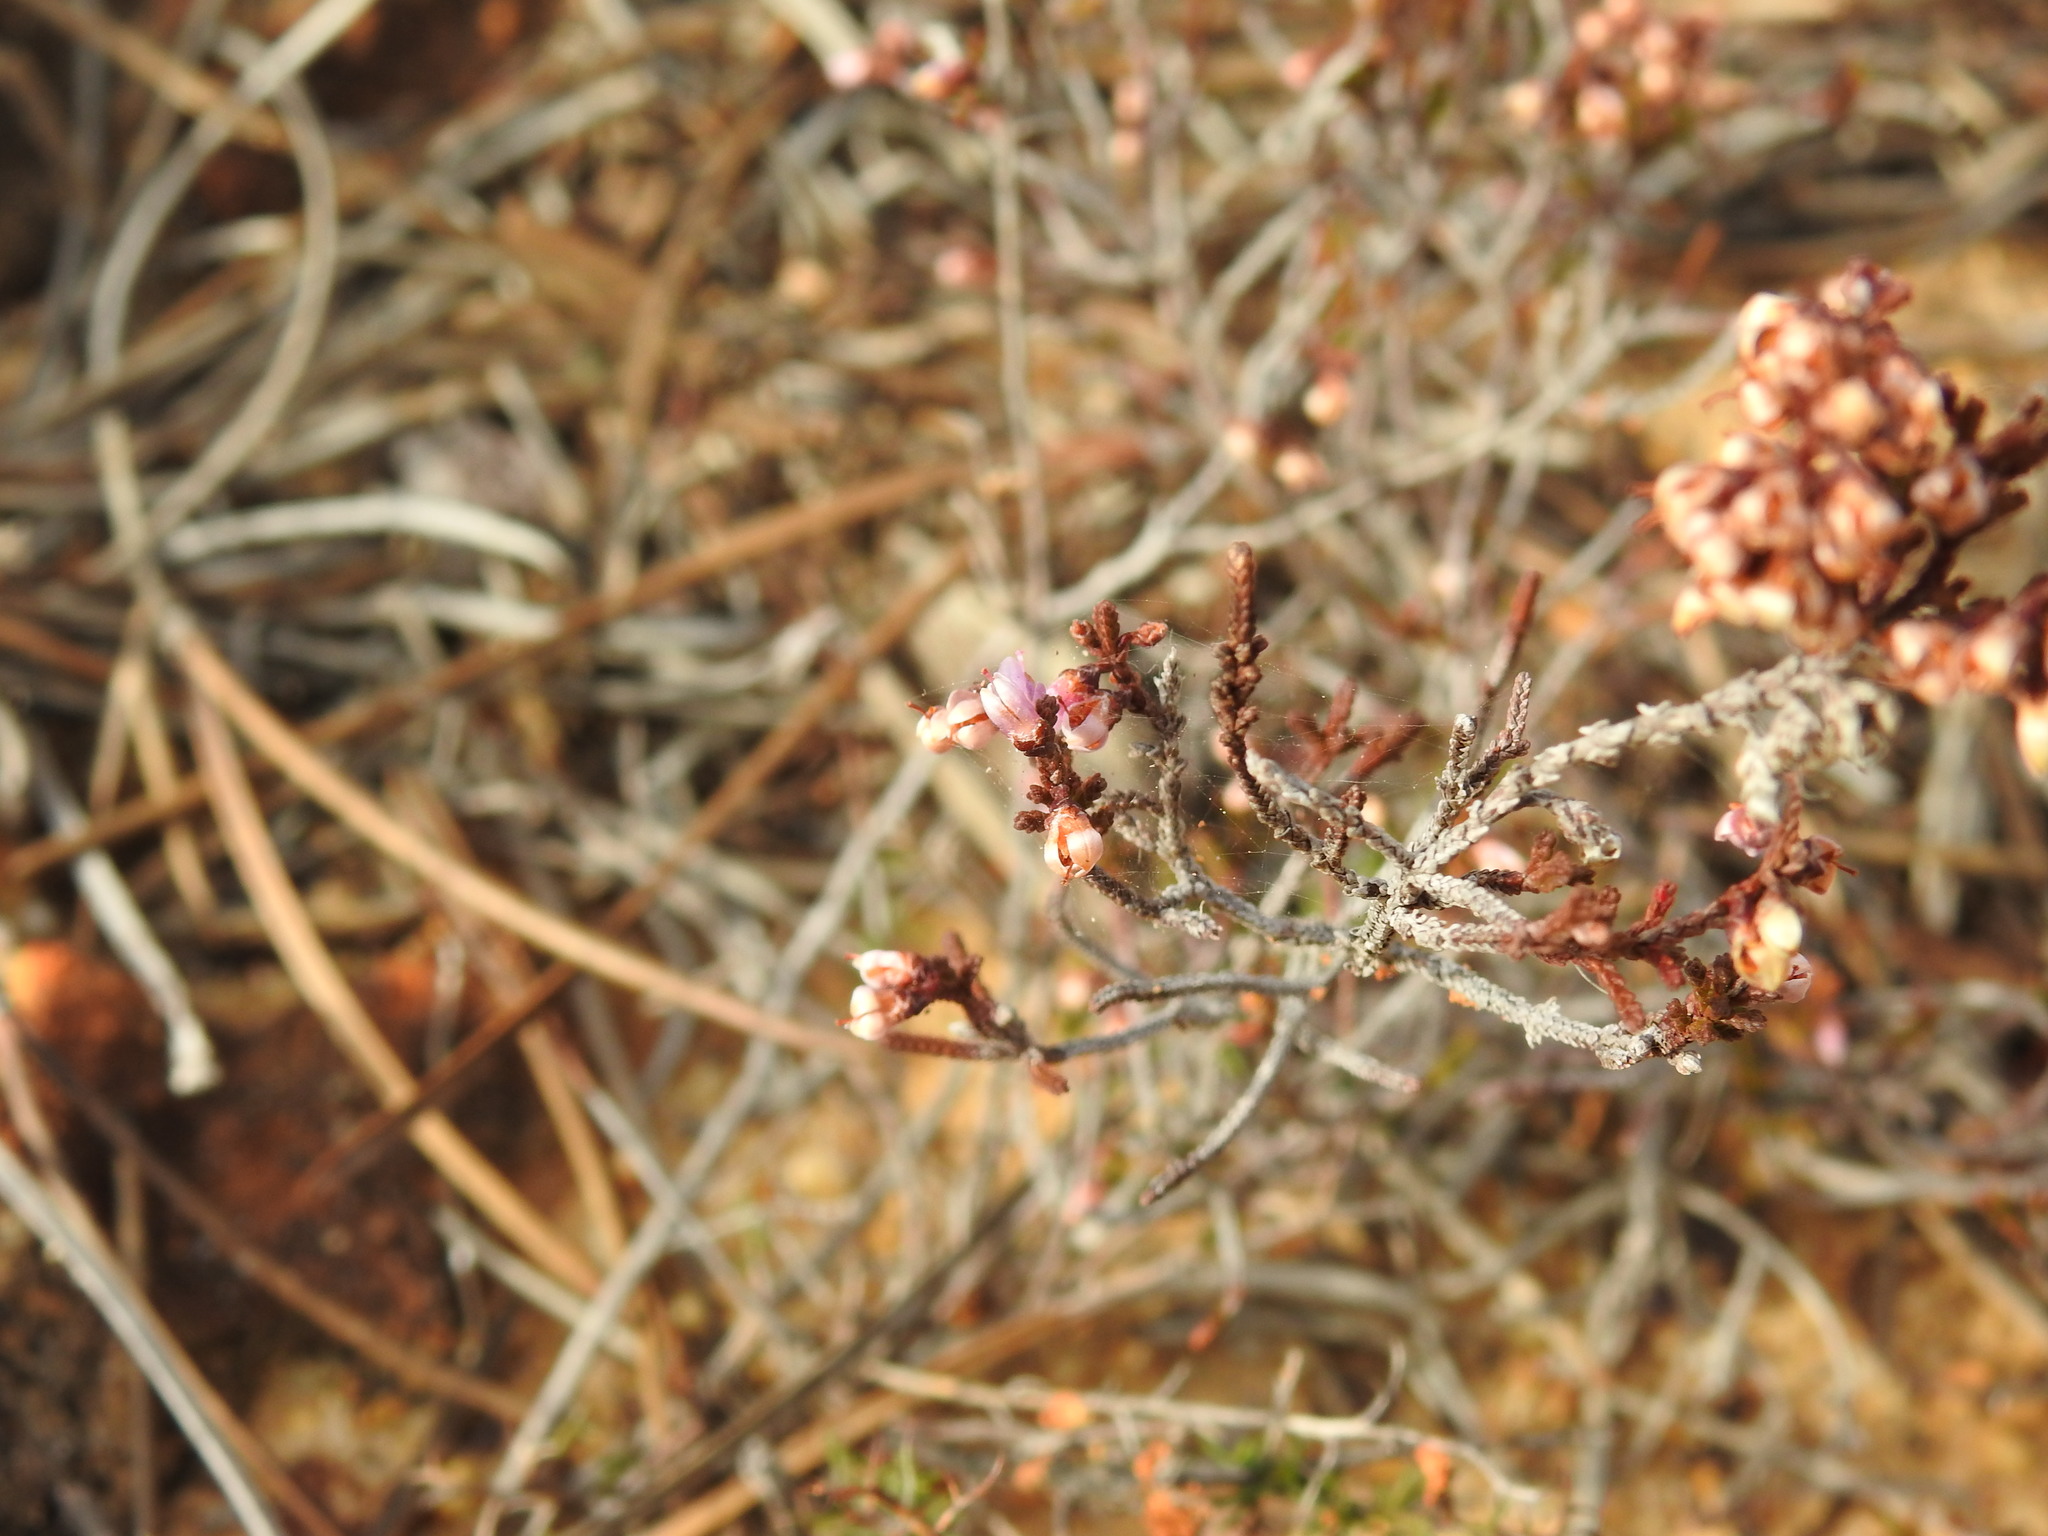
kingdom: Plantae
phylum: Tracheophyta
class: Magnoliopsida
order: Ericales
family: Ericaceae
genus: Calluna
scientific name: Calluna vulgaris
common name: Heather
